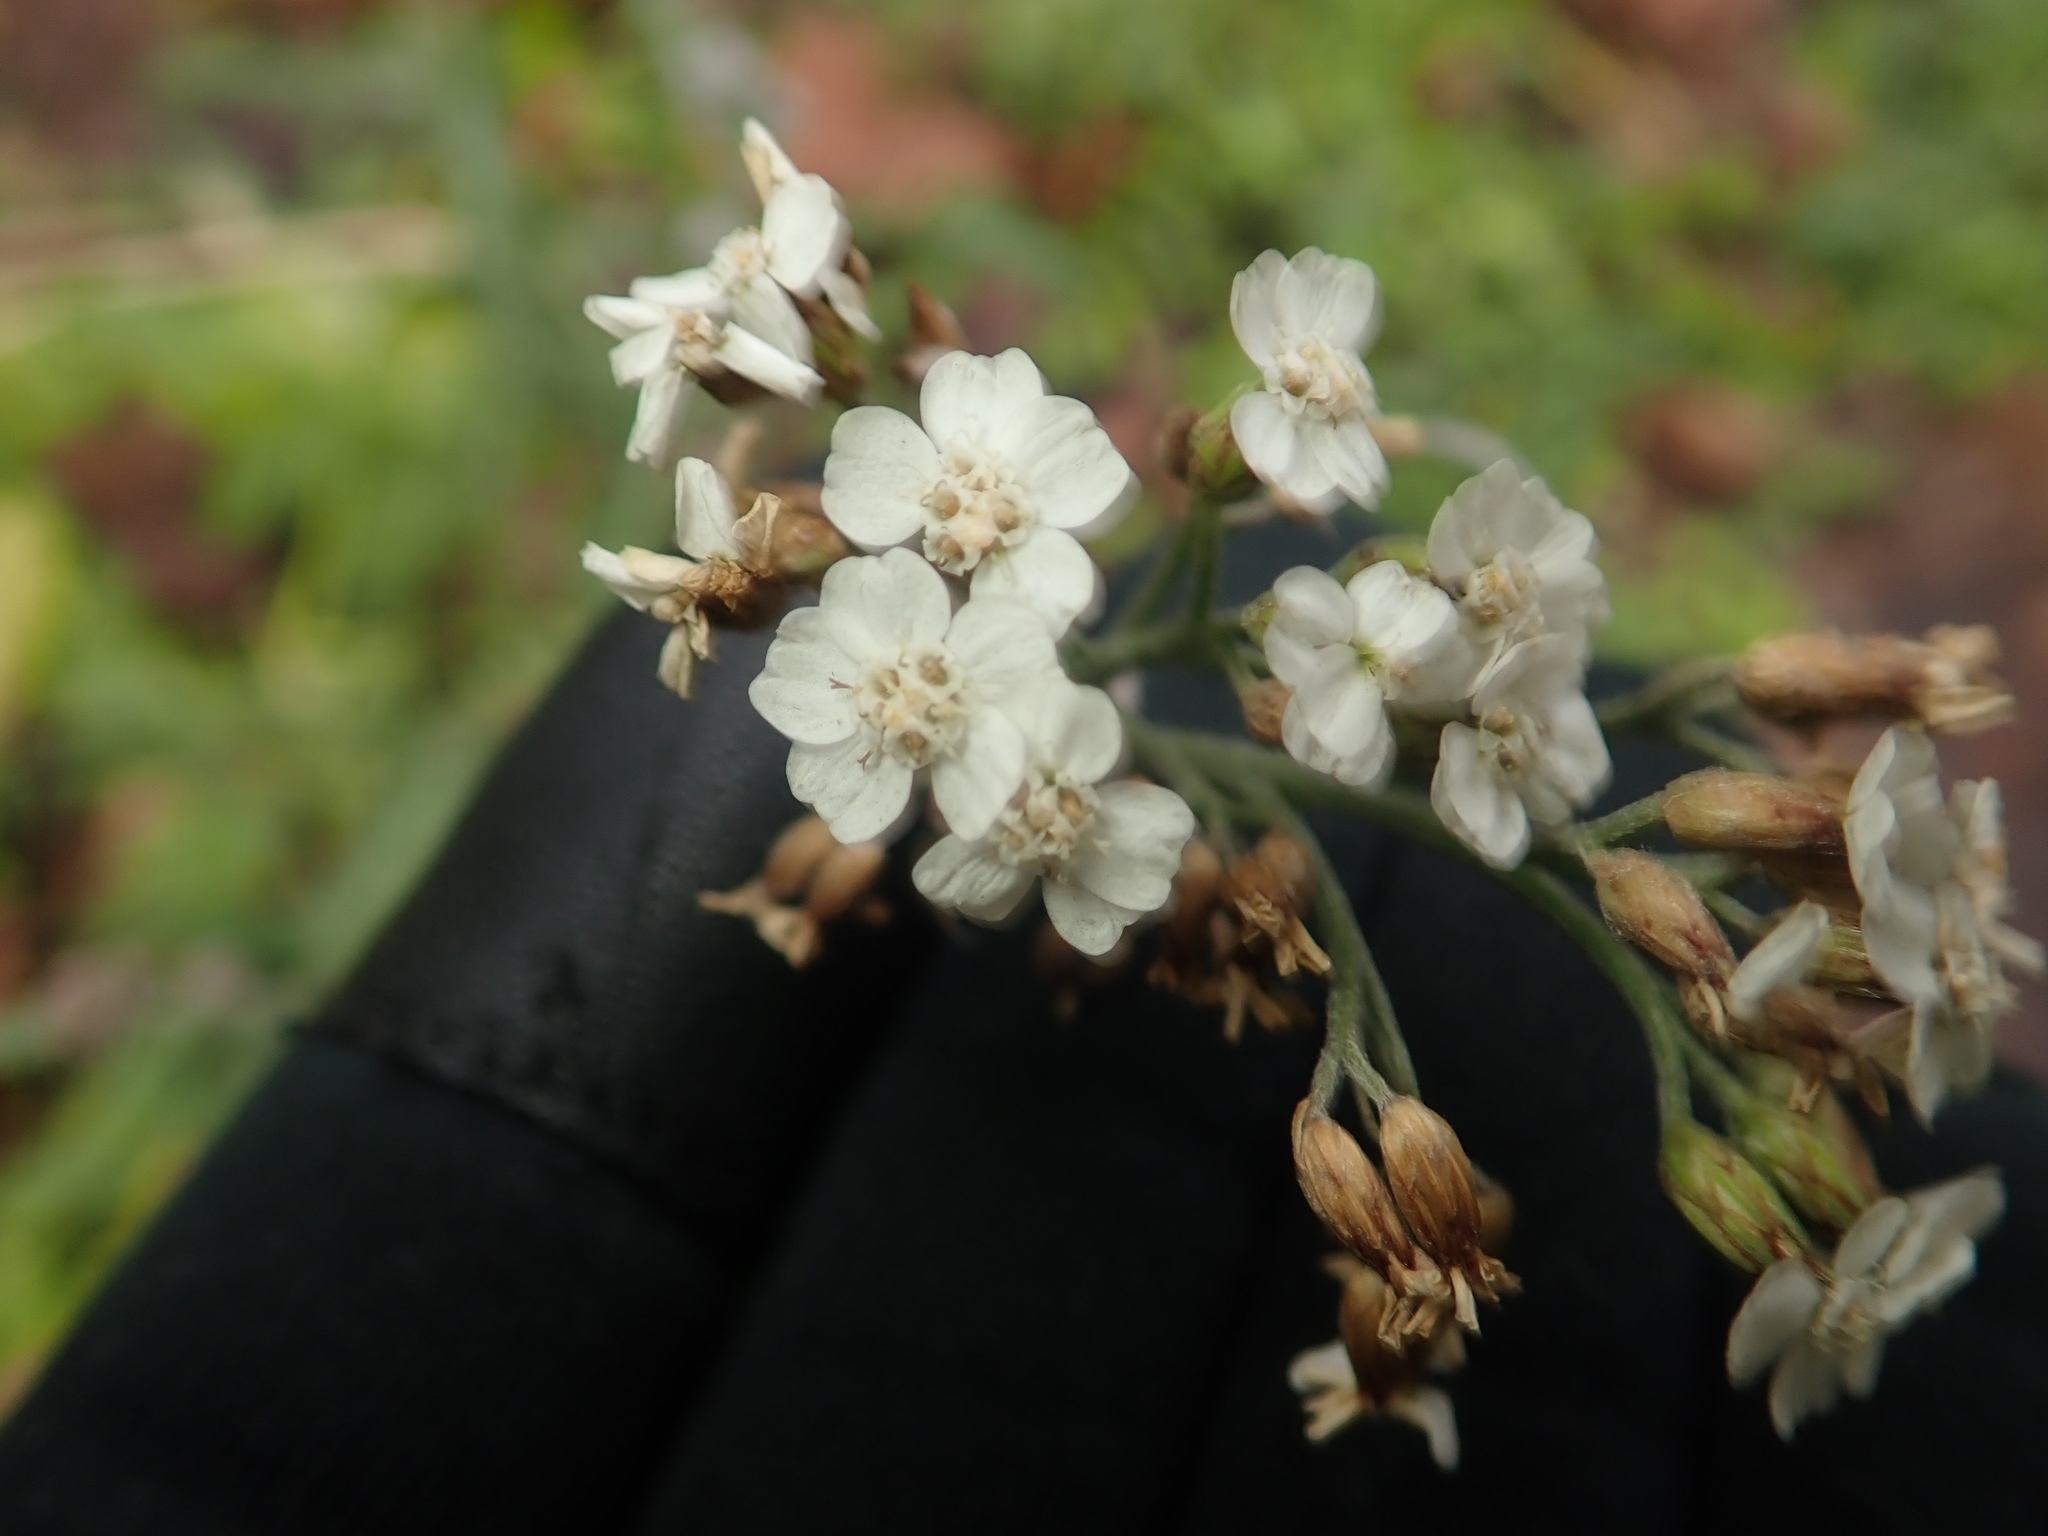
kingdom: Plantae
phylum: Tracheophyta
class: Magnoliopsida
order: Asterales
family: Asteraceae
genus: Achillea
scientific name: Achillea millefolium
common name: Yarrow
